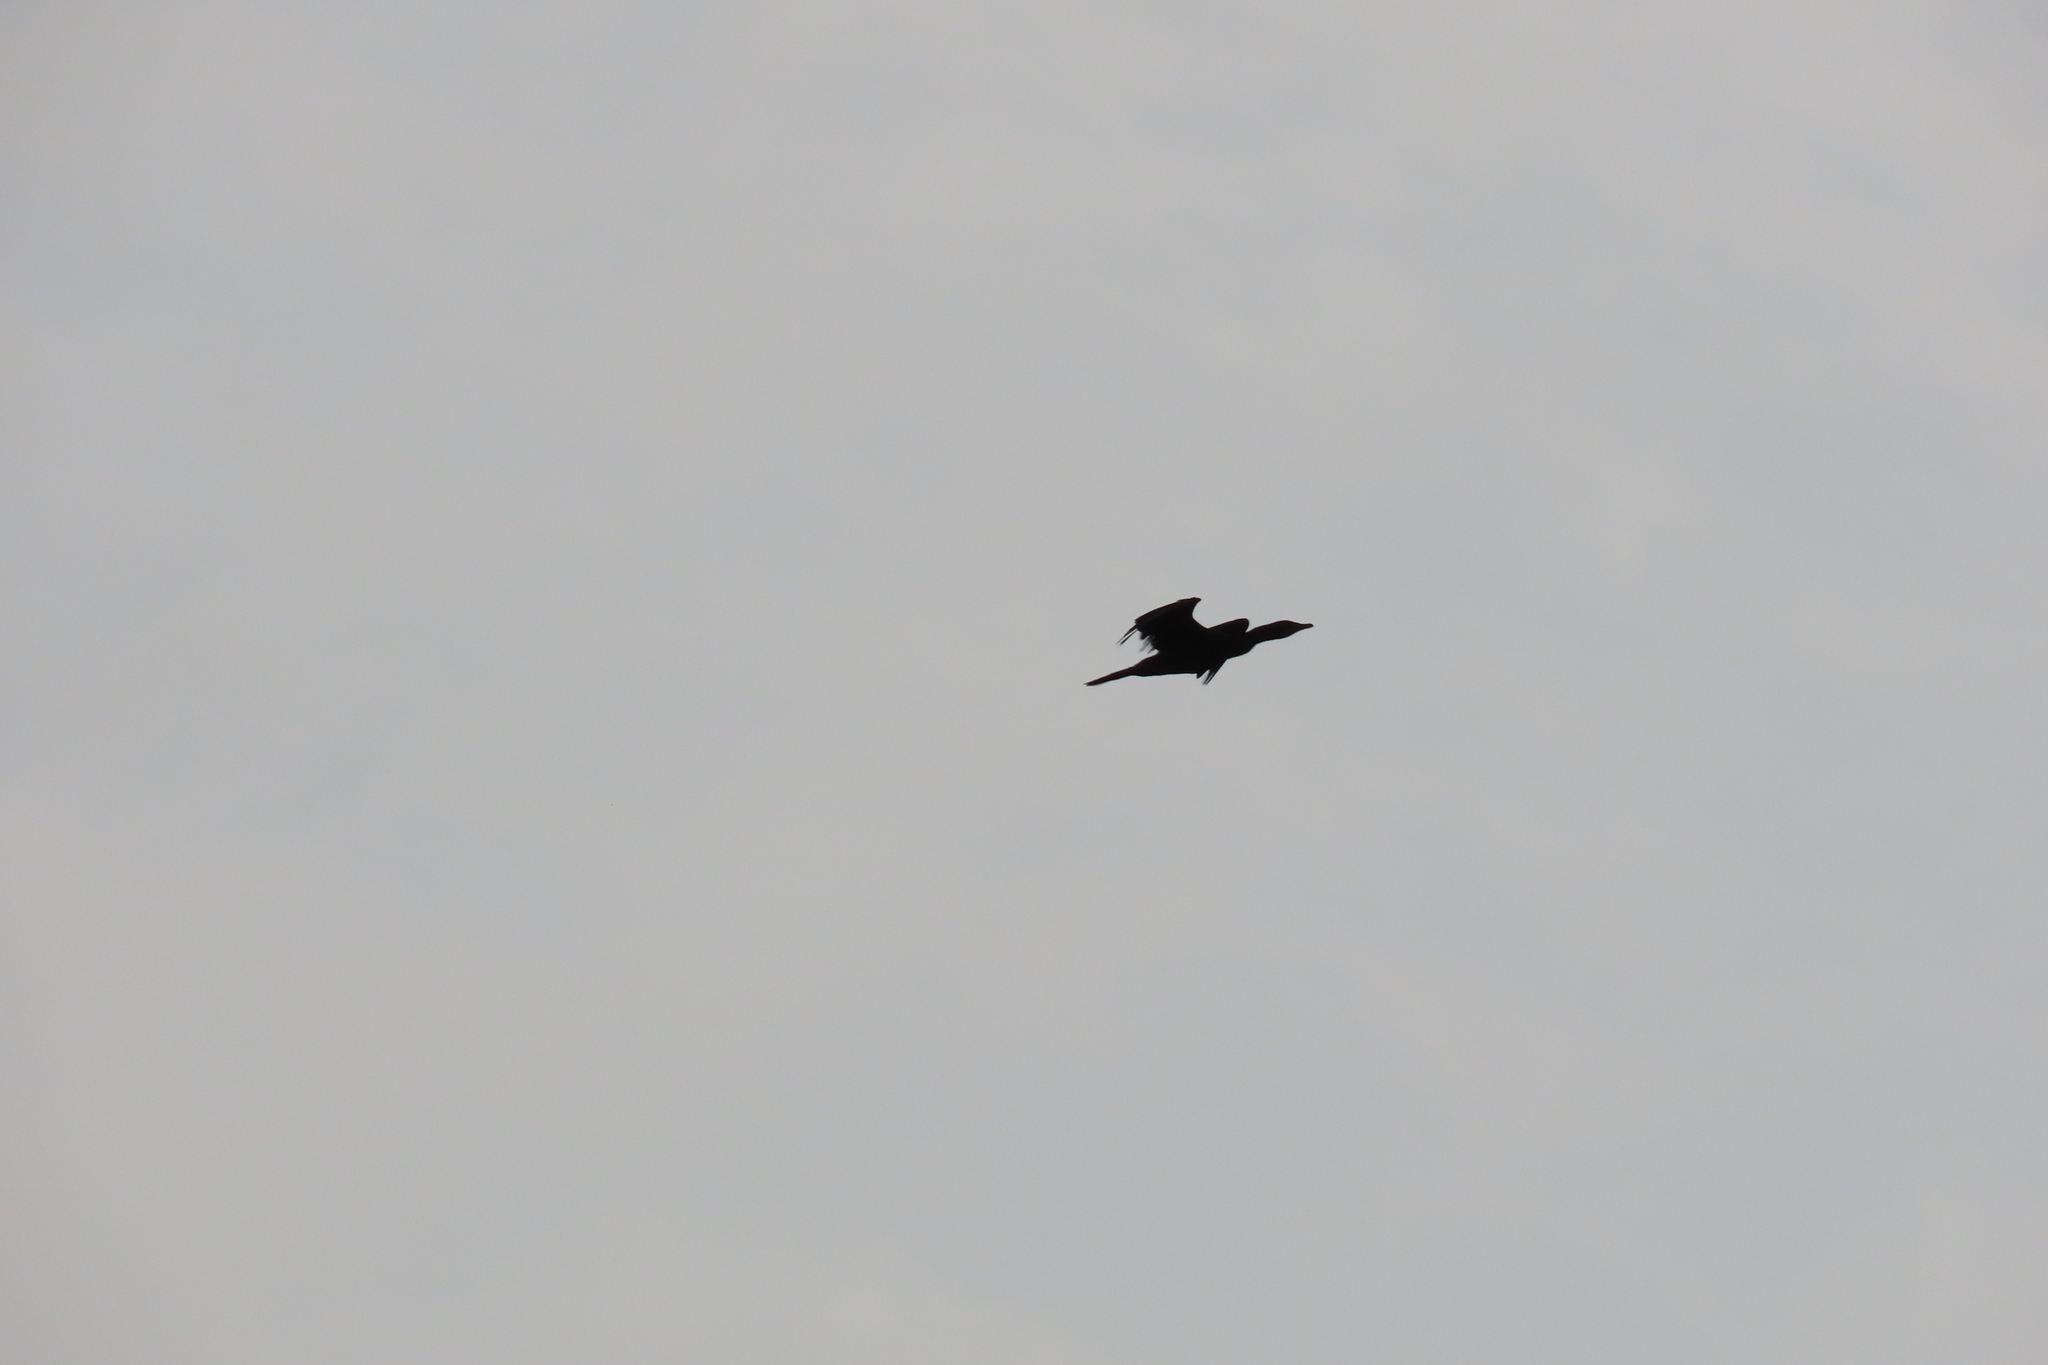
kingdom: Animalia
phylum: Chordata
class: Aves
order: Suliformes
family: Phalacrocoracidae
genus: Microcarbo
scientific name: Microcarbo niger
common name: Little cormorant
